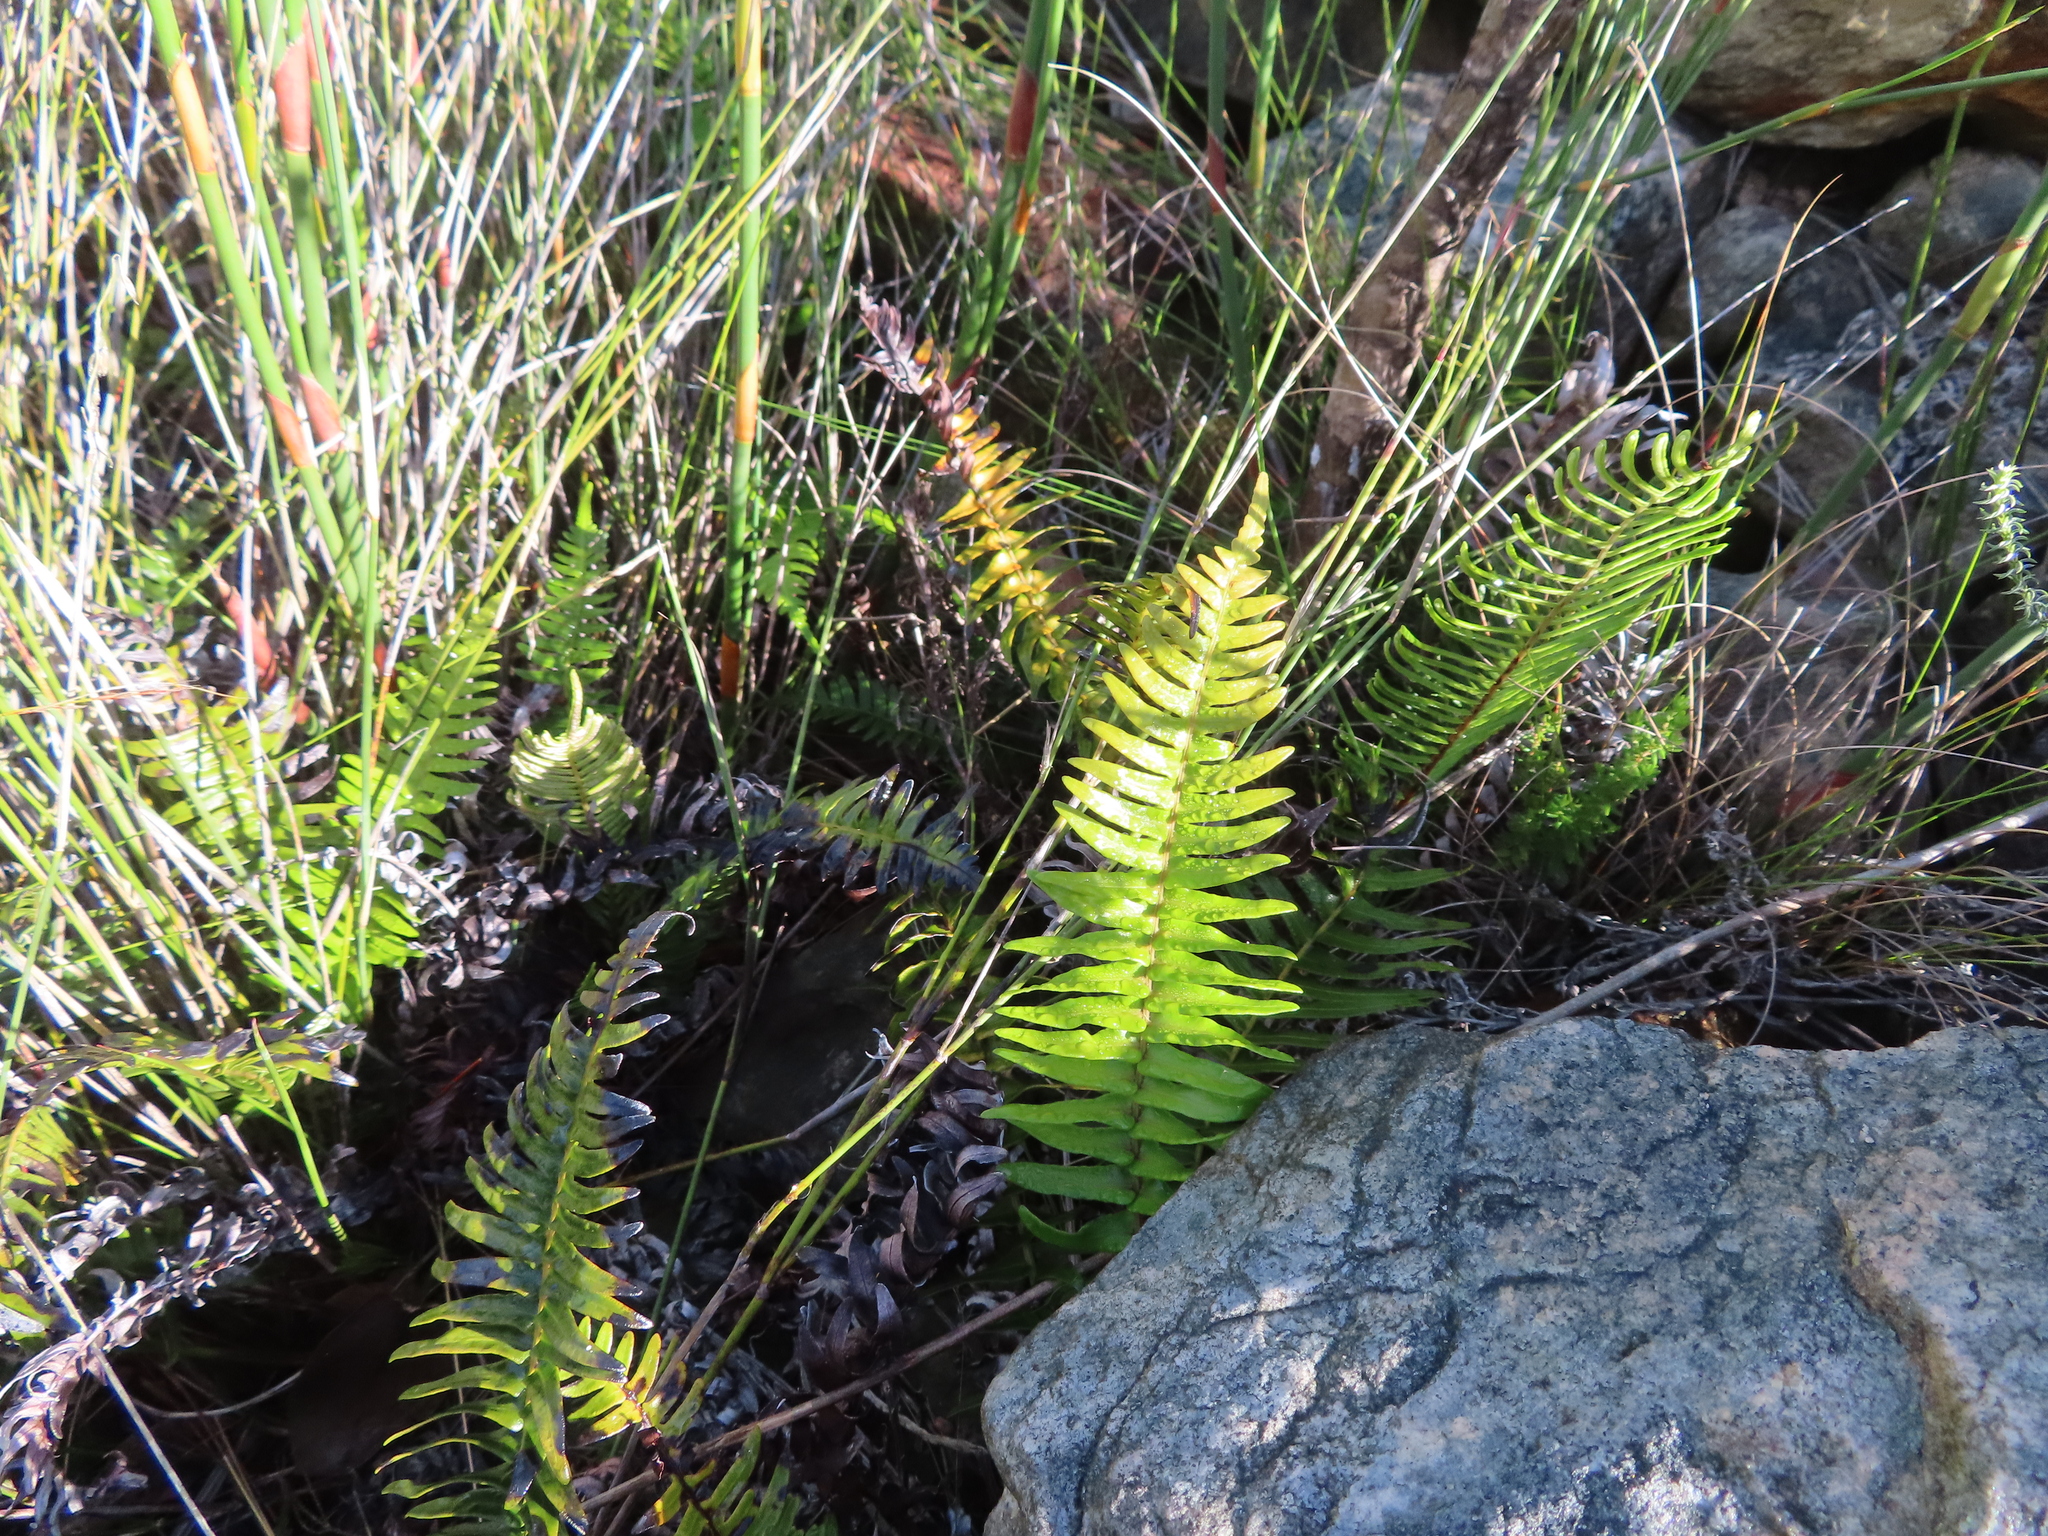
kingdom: Plantae
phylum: Tracheophyta
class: Polypodiopsida
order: Polypodiales
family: Blechnaceae
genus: Blechnum
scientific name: Blechnum punctulatum
